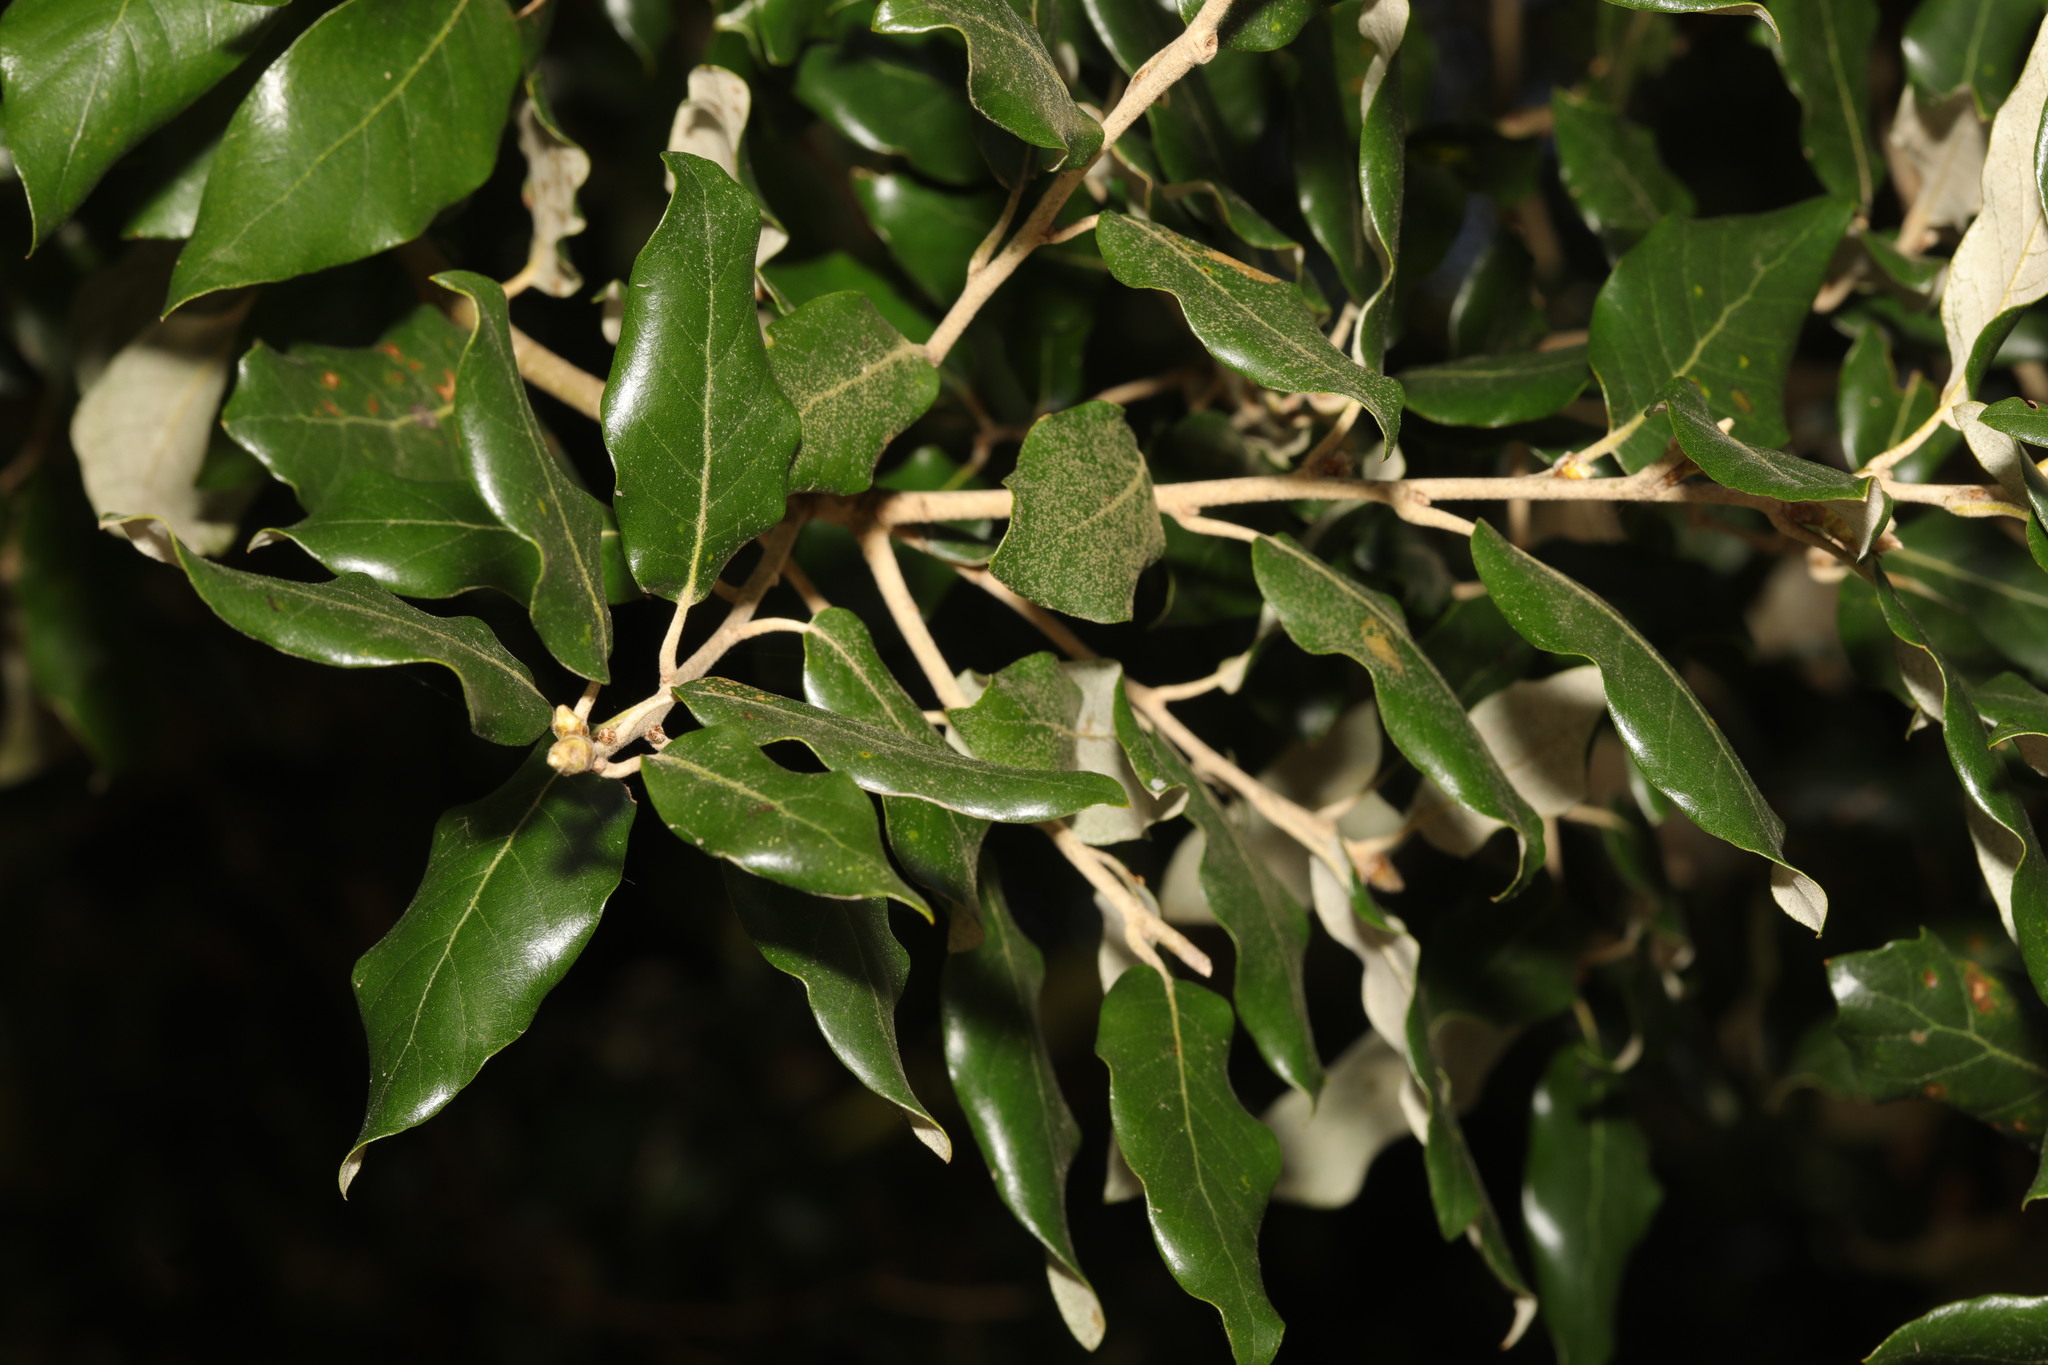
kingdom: Plantae
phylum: Tracheophyta
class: Magnoliopsida
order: Fagales
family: Fagaceae
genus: Quercus
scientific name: Quercus ilex
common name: Evergreen oak
